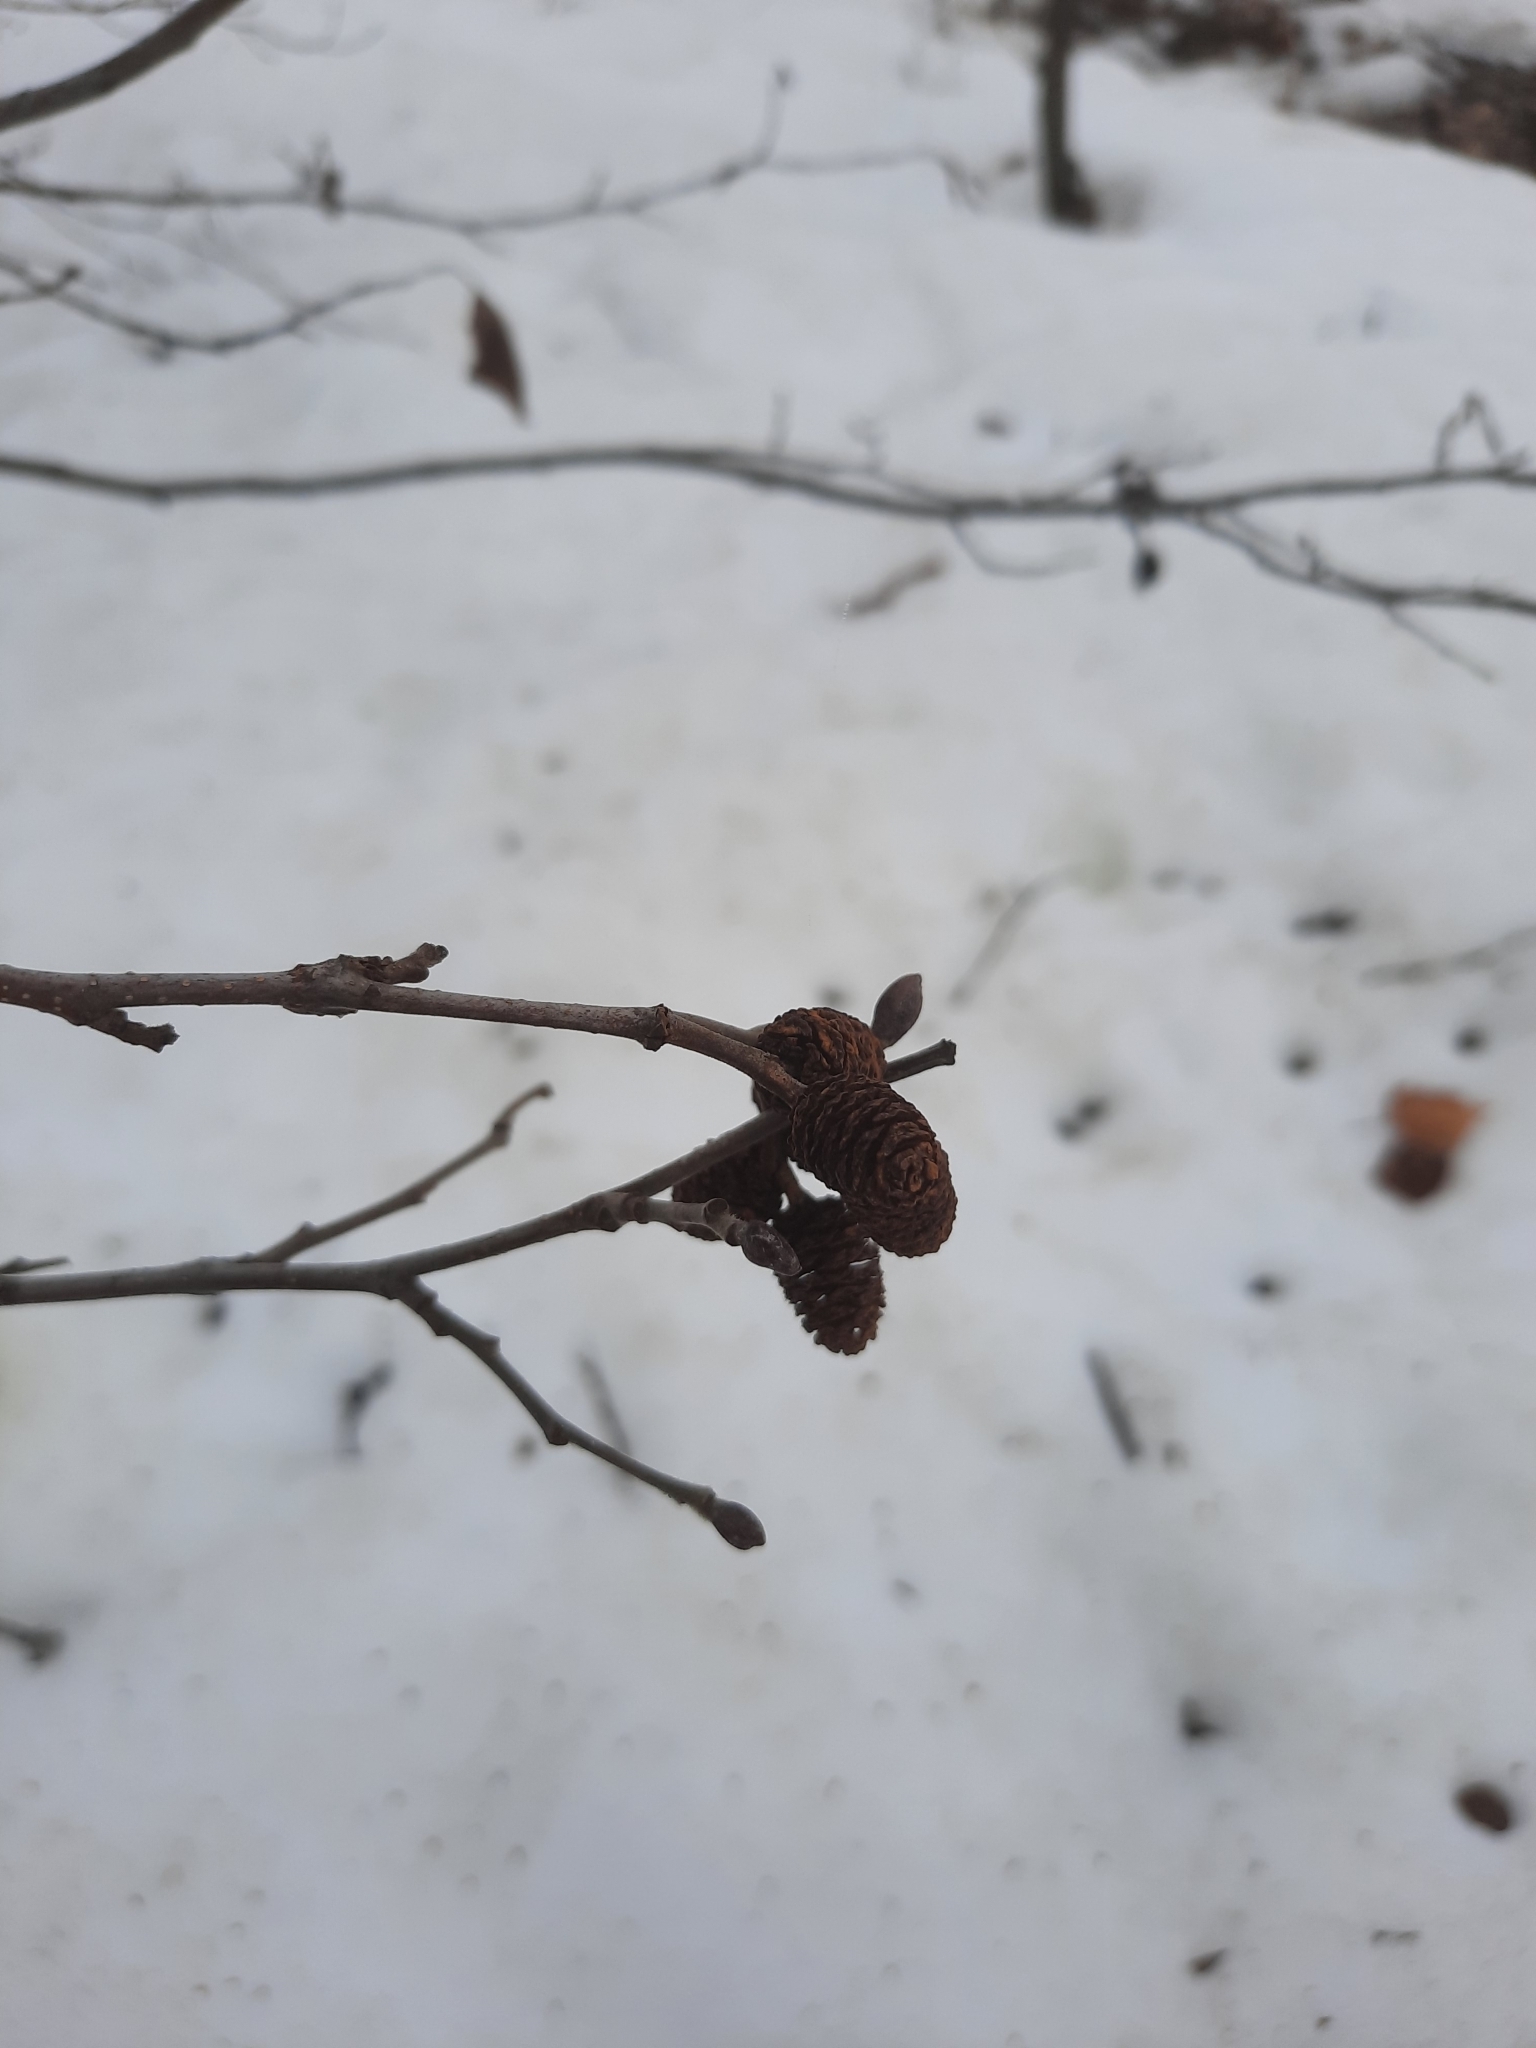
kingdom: Plantae
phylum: Tracheophyta
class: Magnoliopsida
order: Fagales
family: Betulaceae
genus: Alnus
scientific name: Alnus incana
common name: Grey alder
